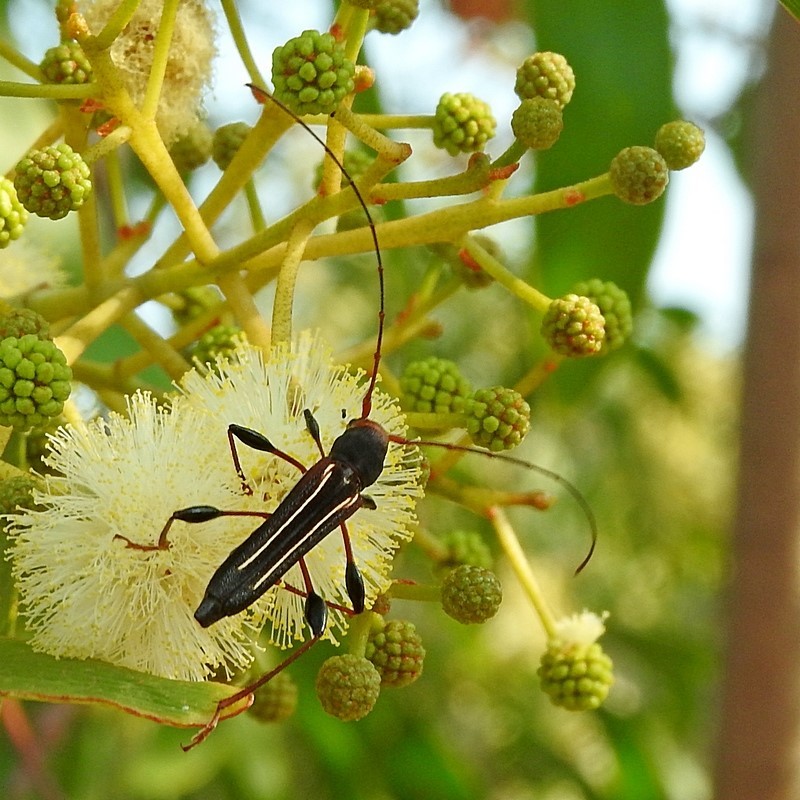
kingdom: Animalia
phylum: Arthropoda
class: Insecta
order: Coleoptera
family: Cerambycidae
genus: Amphirhoe
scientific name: Amphirhoe sloanei
